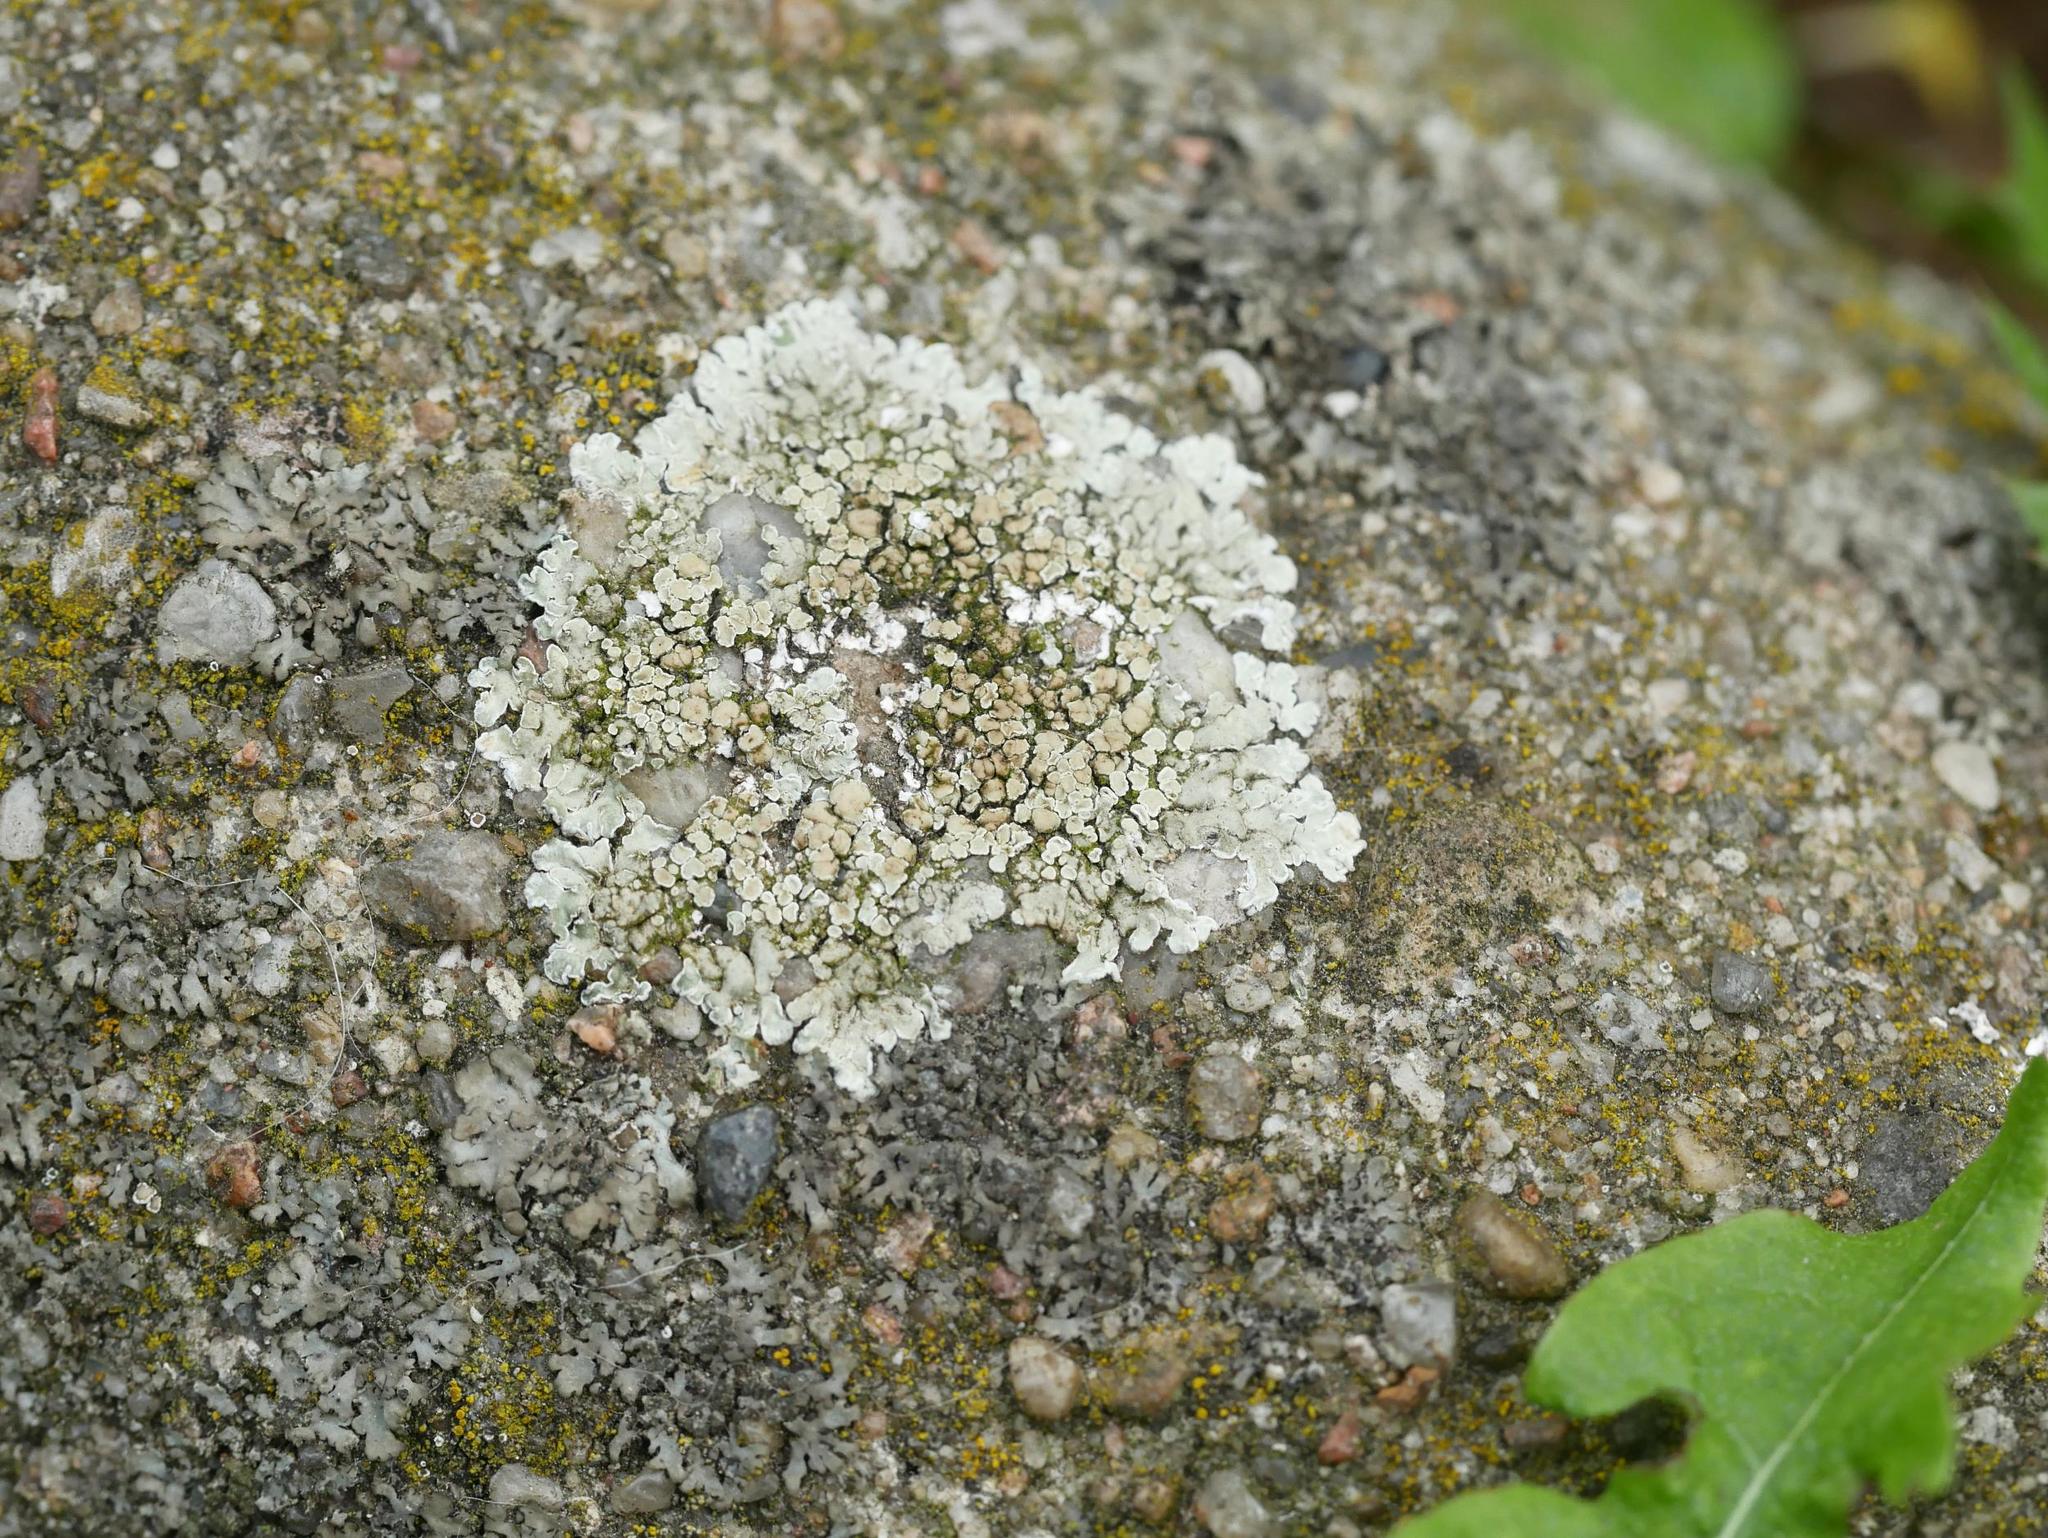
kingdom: Fungi
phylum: Ascomycota
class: Lecanoromycetes
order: Lecanorales
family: Lecanoraceae
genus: Protoparmeliopsis
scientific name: Protoparmeliopsis muralis
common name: Stonewall rim lichen
